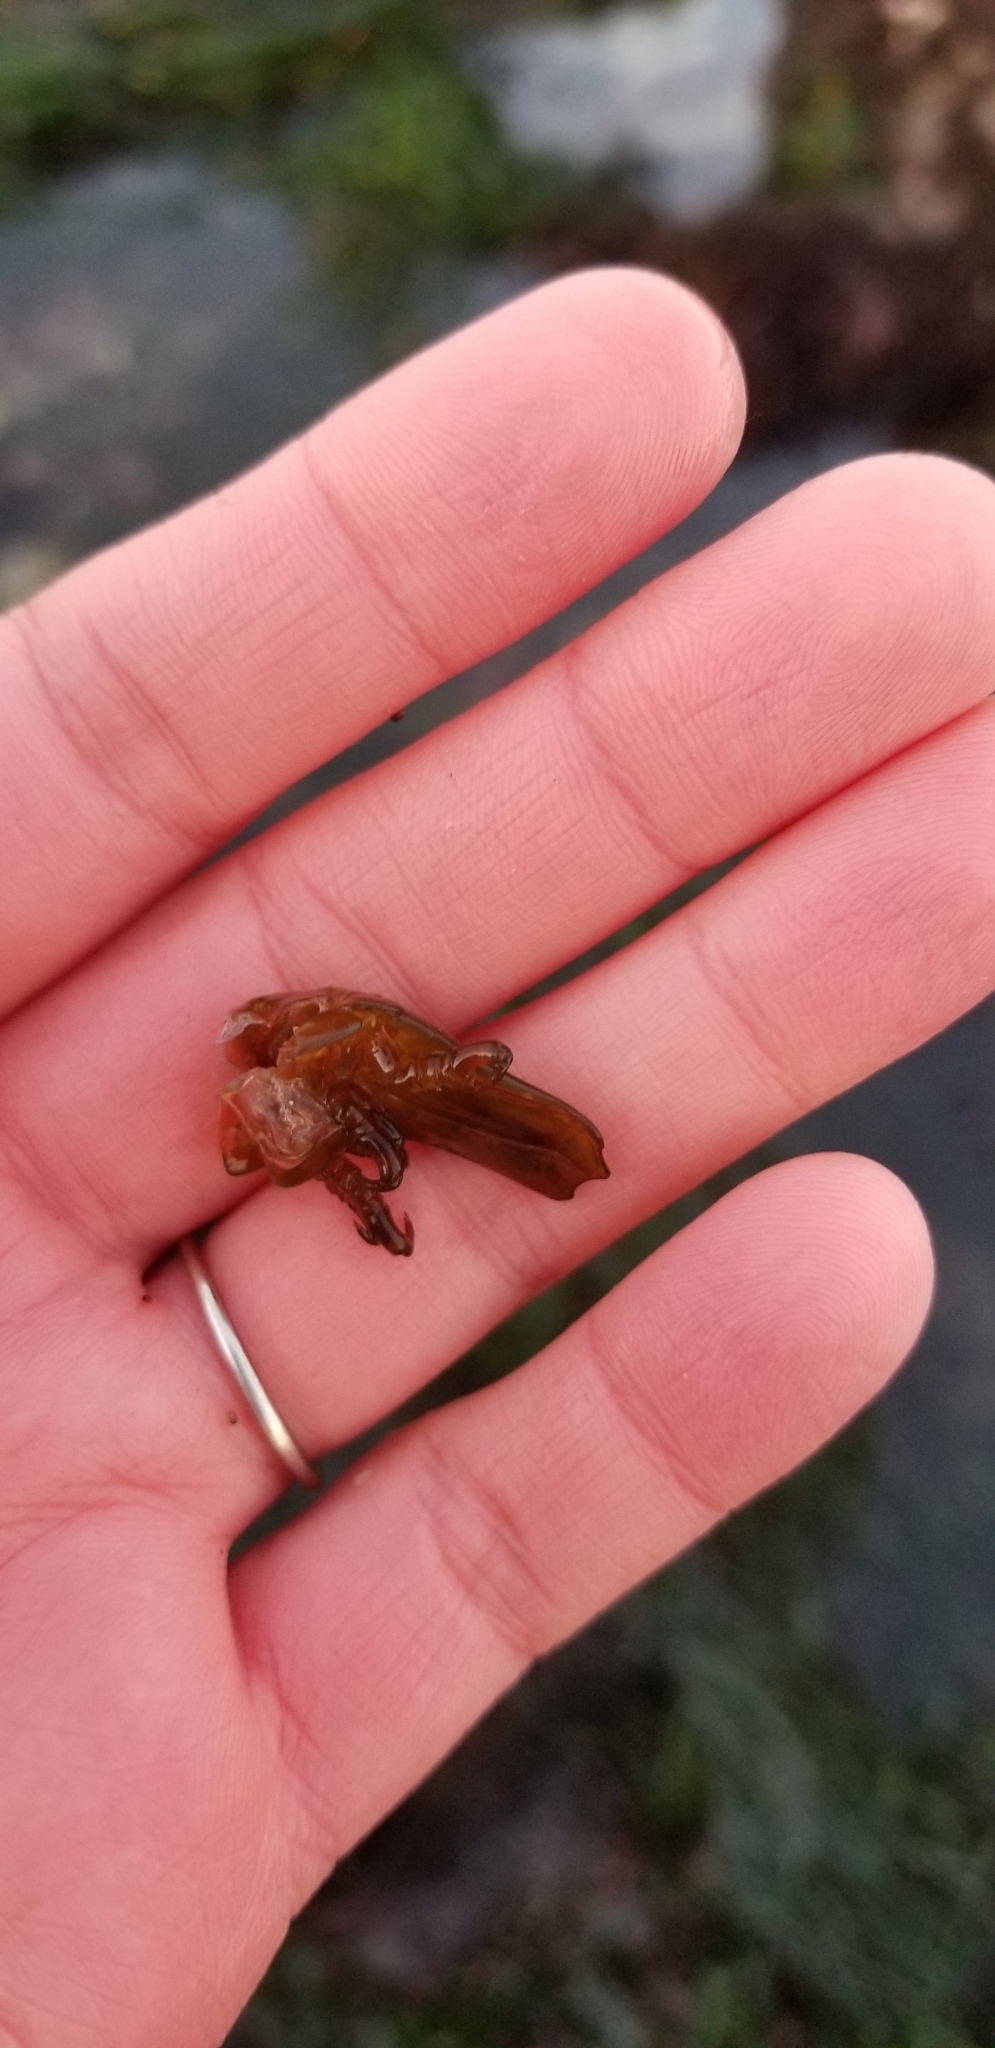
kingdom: Animalia
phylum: Arthropoda
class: Malacostraca
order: Isopoda
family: Idoteidae
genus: Pentidotea
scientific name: Pentidotea stenops
